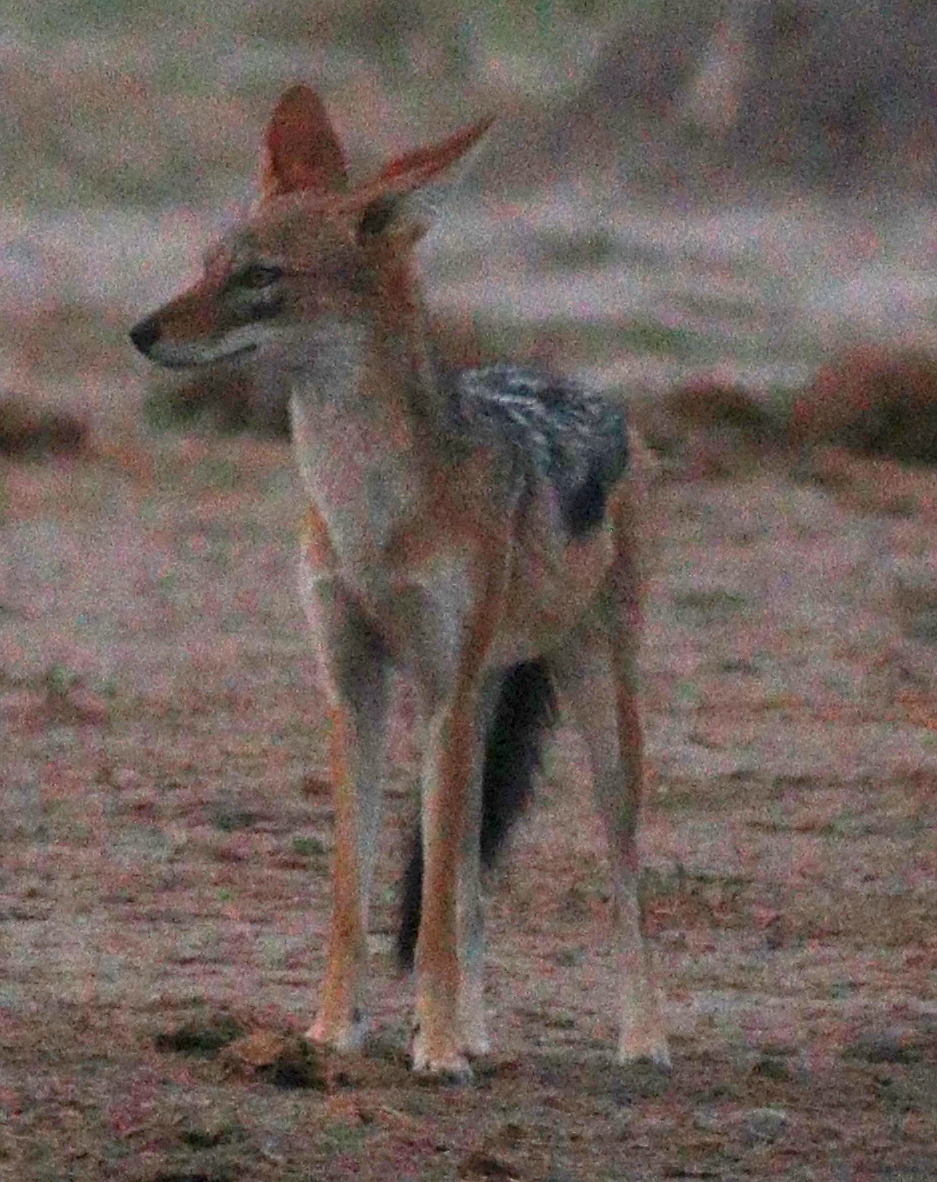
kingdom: Animalia
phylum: Chordata
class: Mammalia
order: Carnivora
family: Canidae
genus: Lupulella
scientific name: Lupulella
